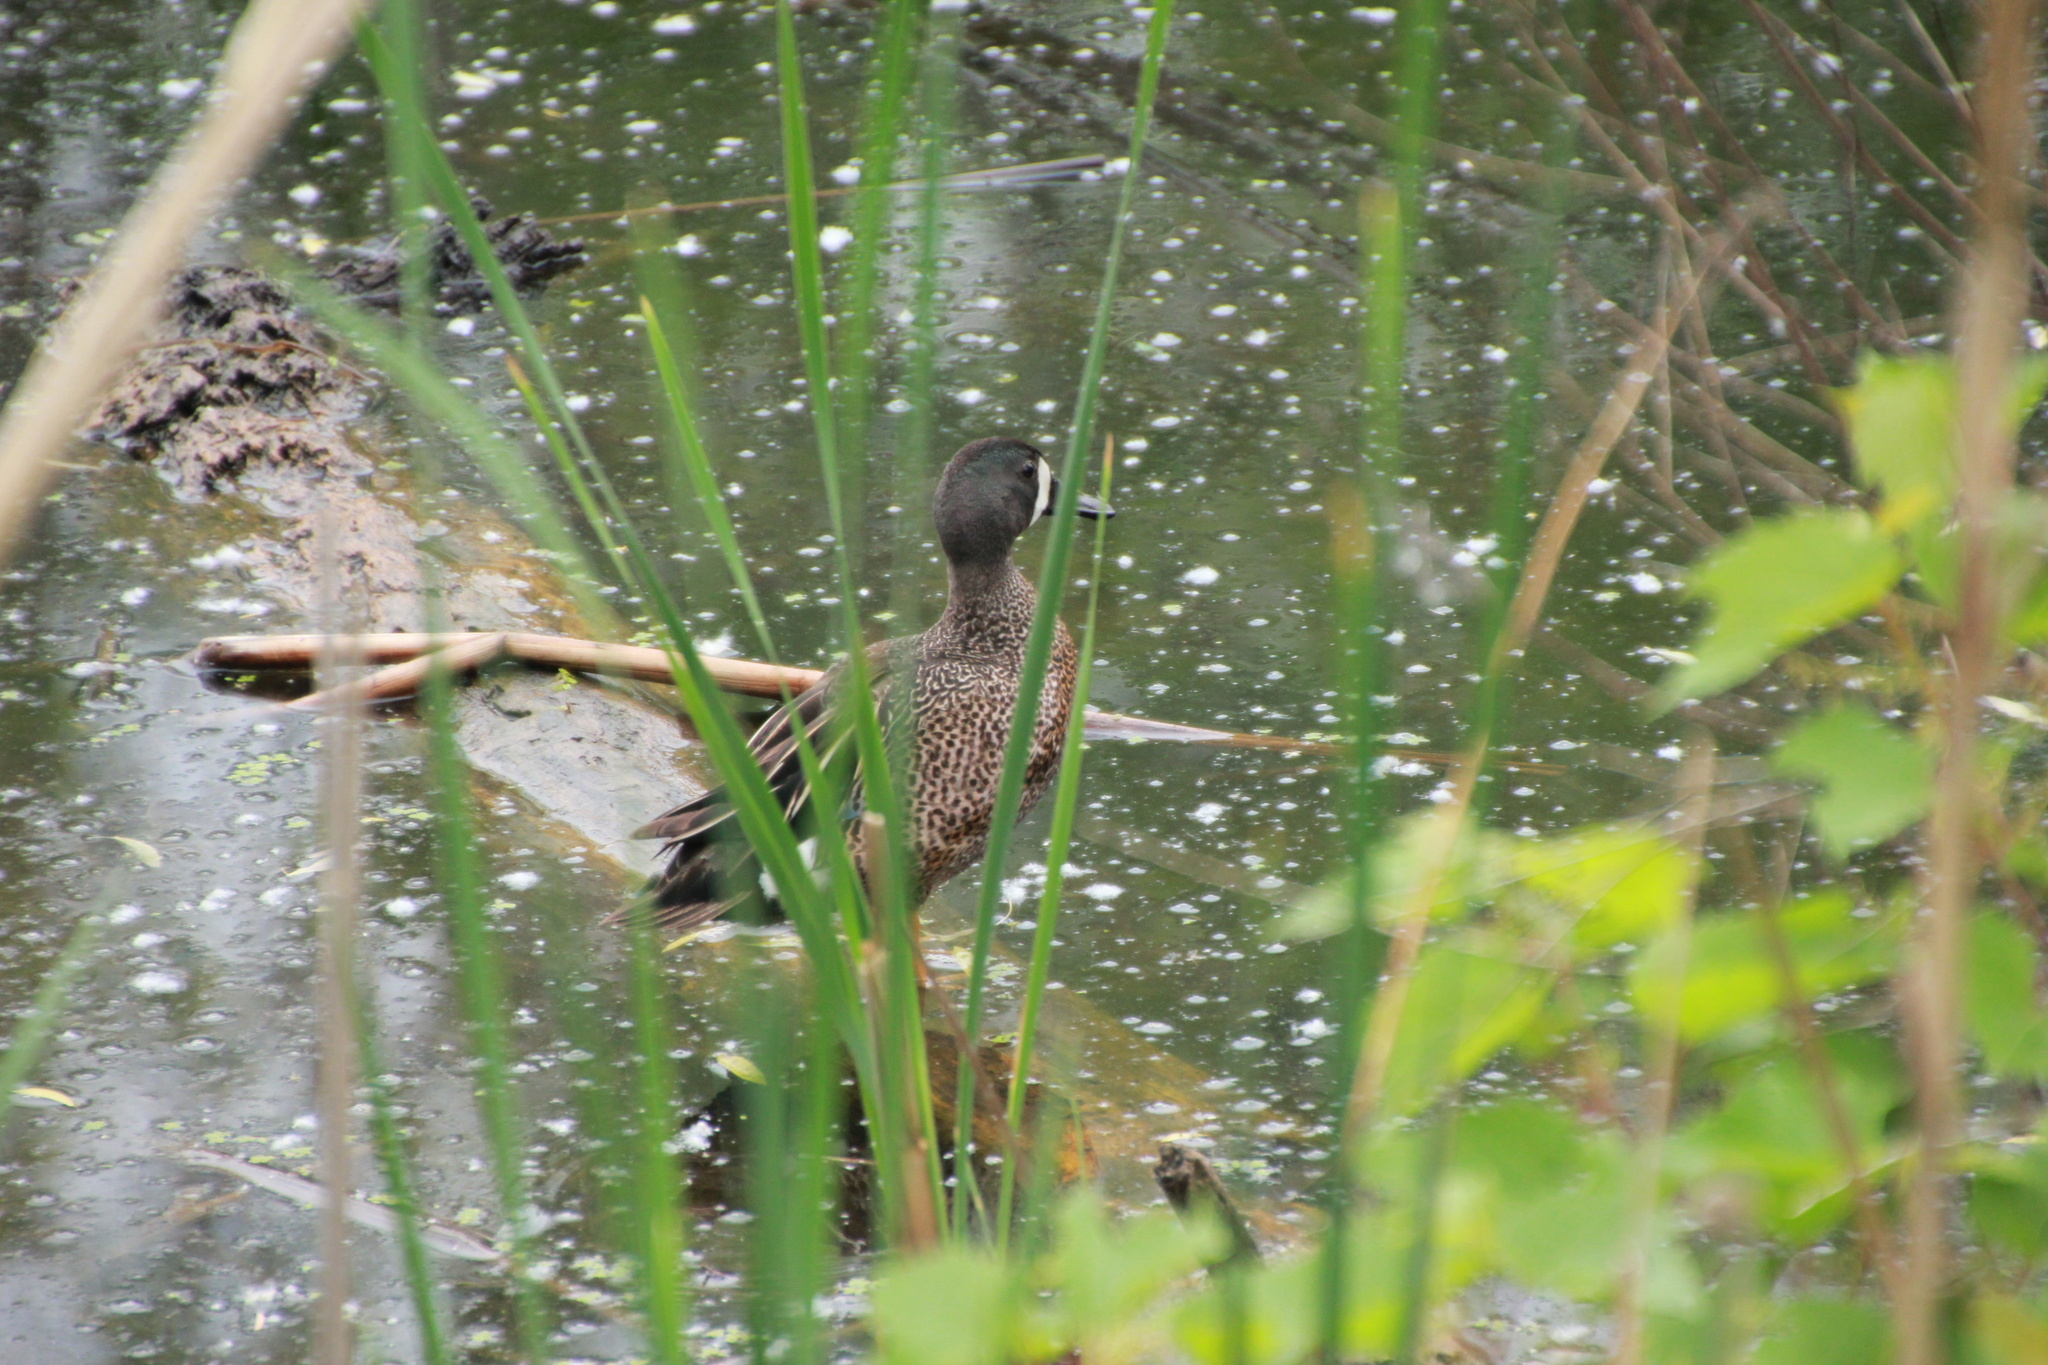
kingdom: Animalia
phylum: Chordata
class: Aves
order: Anseriformes
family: Anatidae
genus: Spatula
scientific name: Spatula discors
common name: Blue-winged teal
